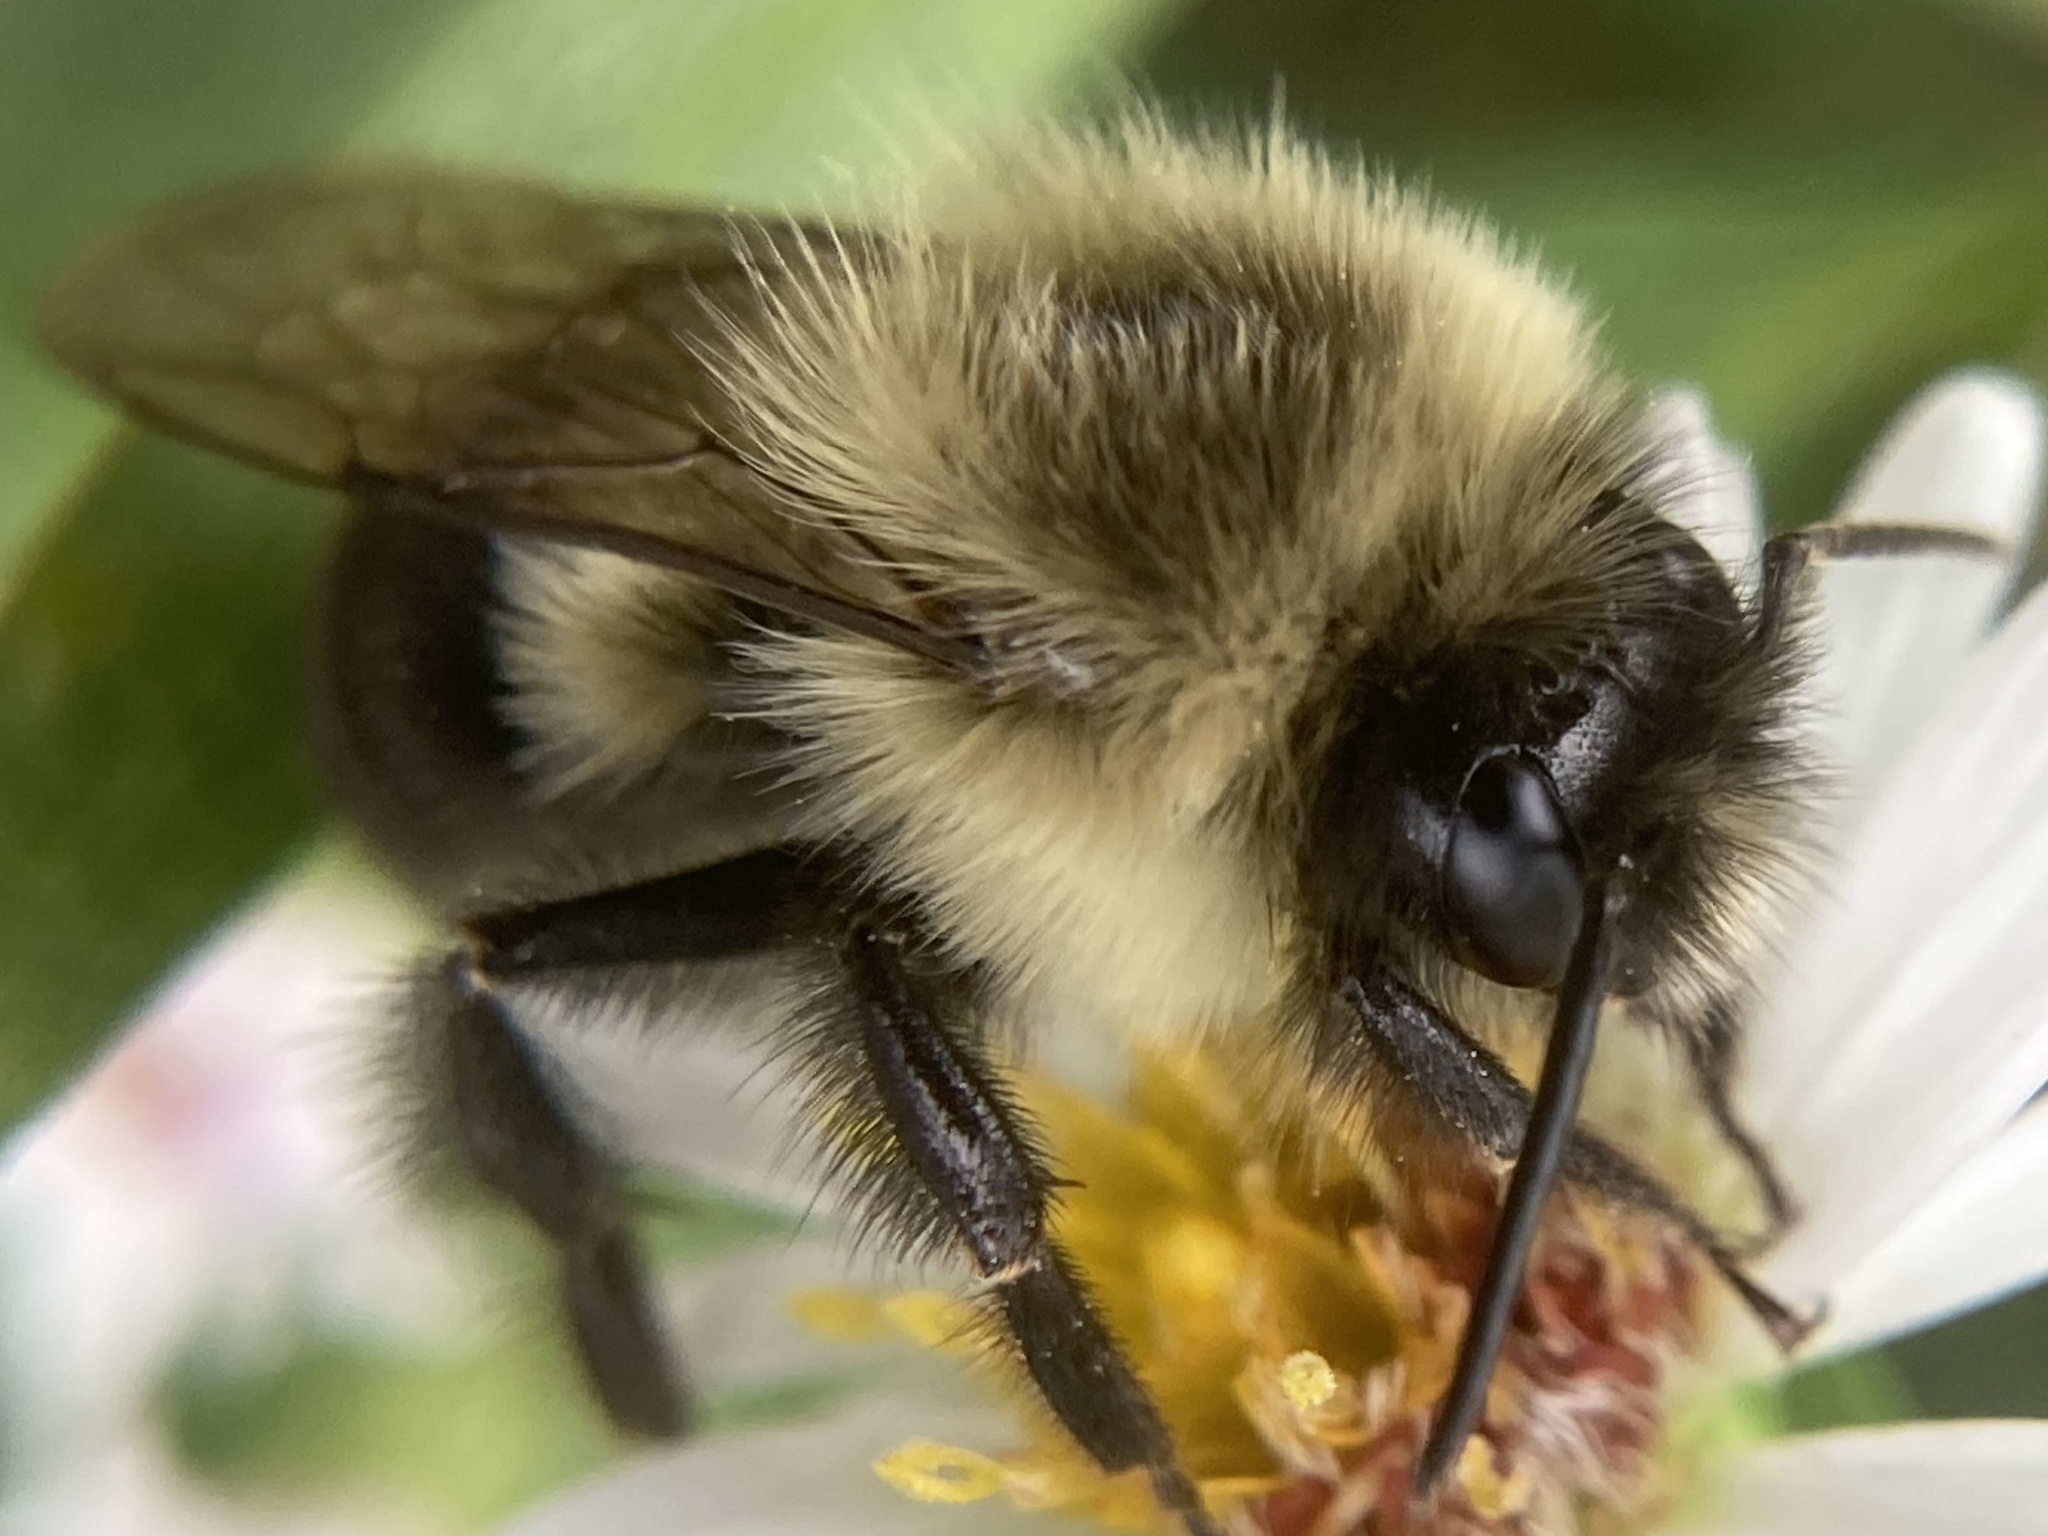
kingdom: Animalia
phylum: Arthropoda
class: Insecta
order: Hymenoptera
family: Apidae
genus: Bombus
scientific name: Bombus impatiens
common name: Common eastern bumble bee
